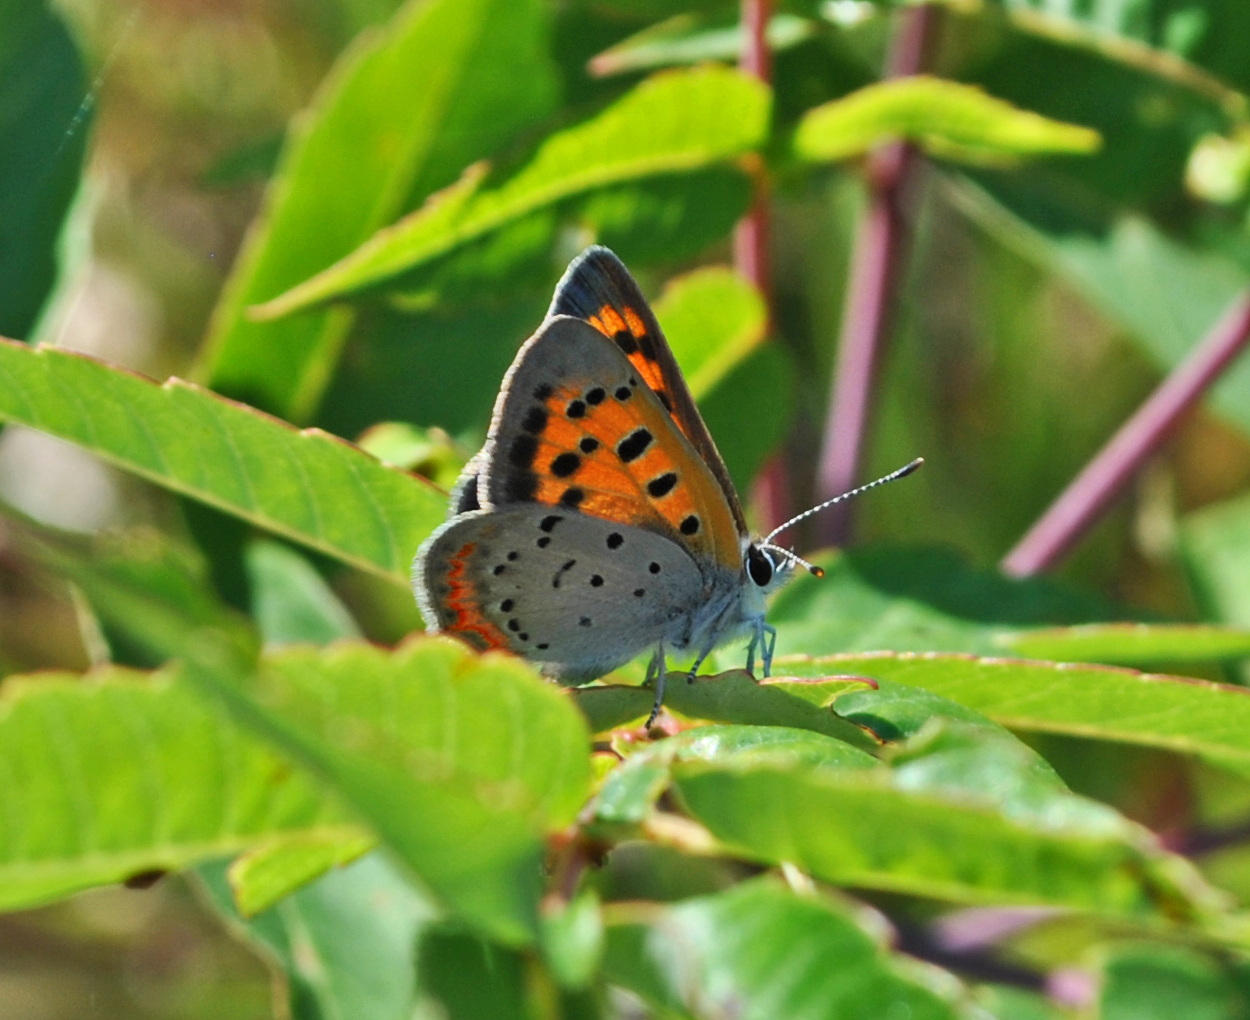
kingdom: Animalia
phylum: Arthropoda
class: Insecta
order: Lepidoptera
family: Lycaenidae
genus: Lycaena
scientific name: Lycaena hypophlaeas
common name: American copper
